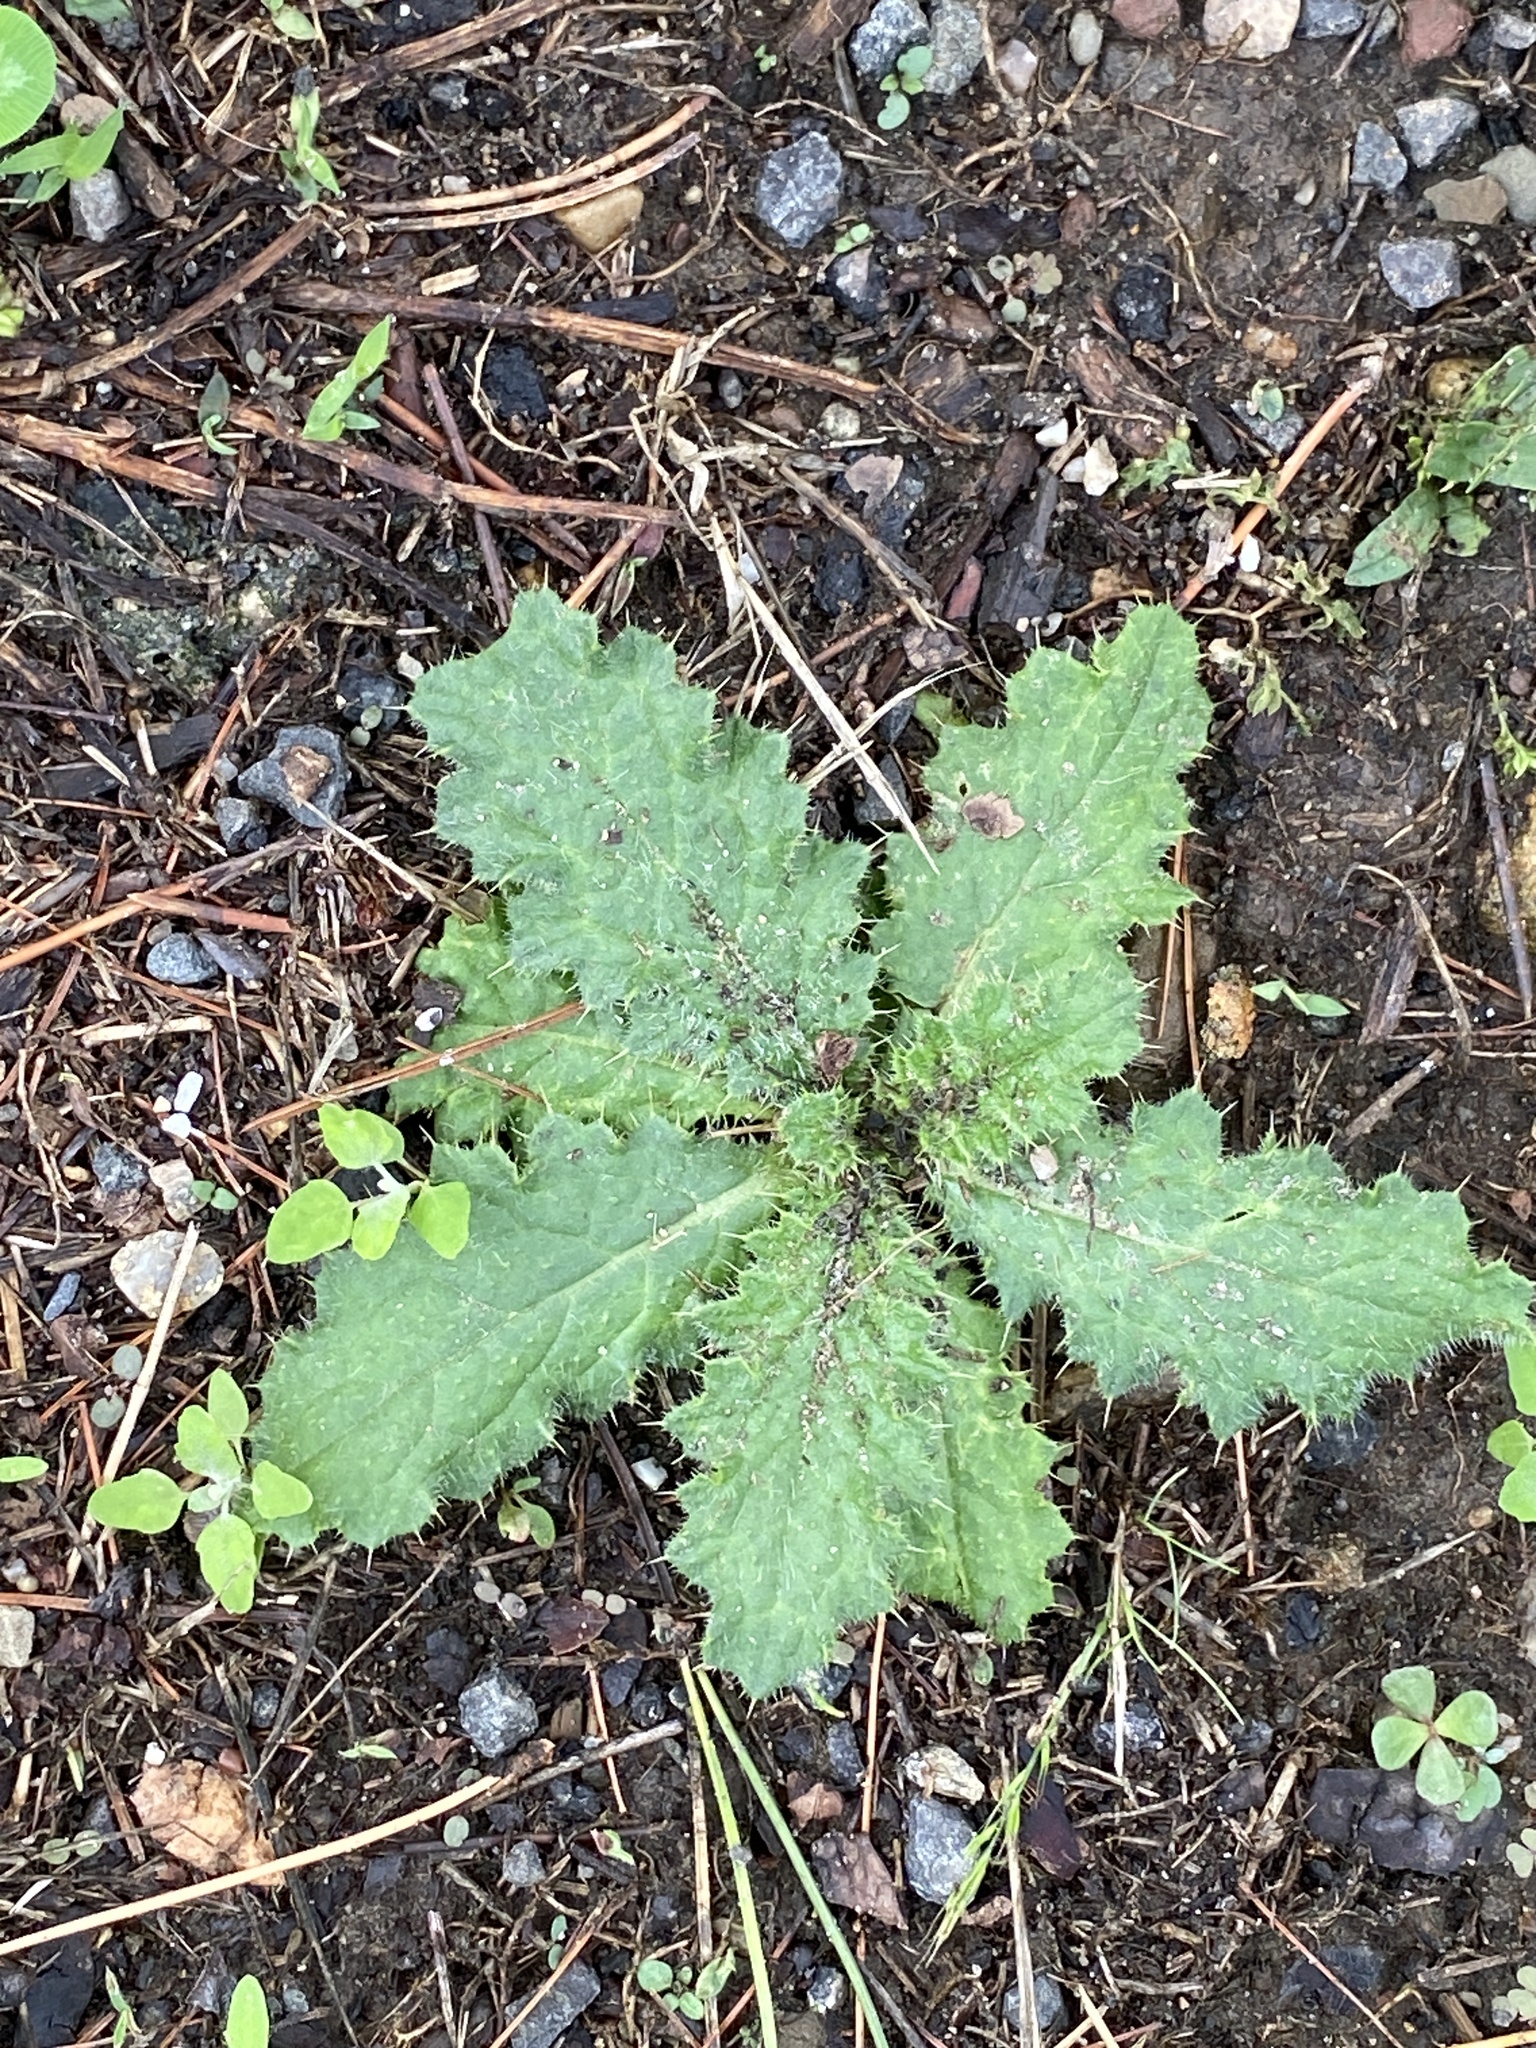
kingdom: Plantae
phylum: Tracheophyta
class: Magnoliopsida
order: Asterales
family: Asteraceae
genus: Cirsium
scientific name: Cirsium vulgare
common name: Bull thistle
